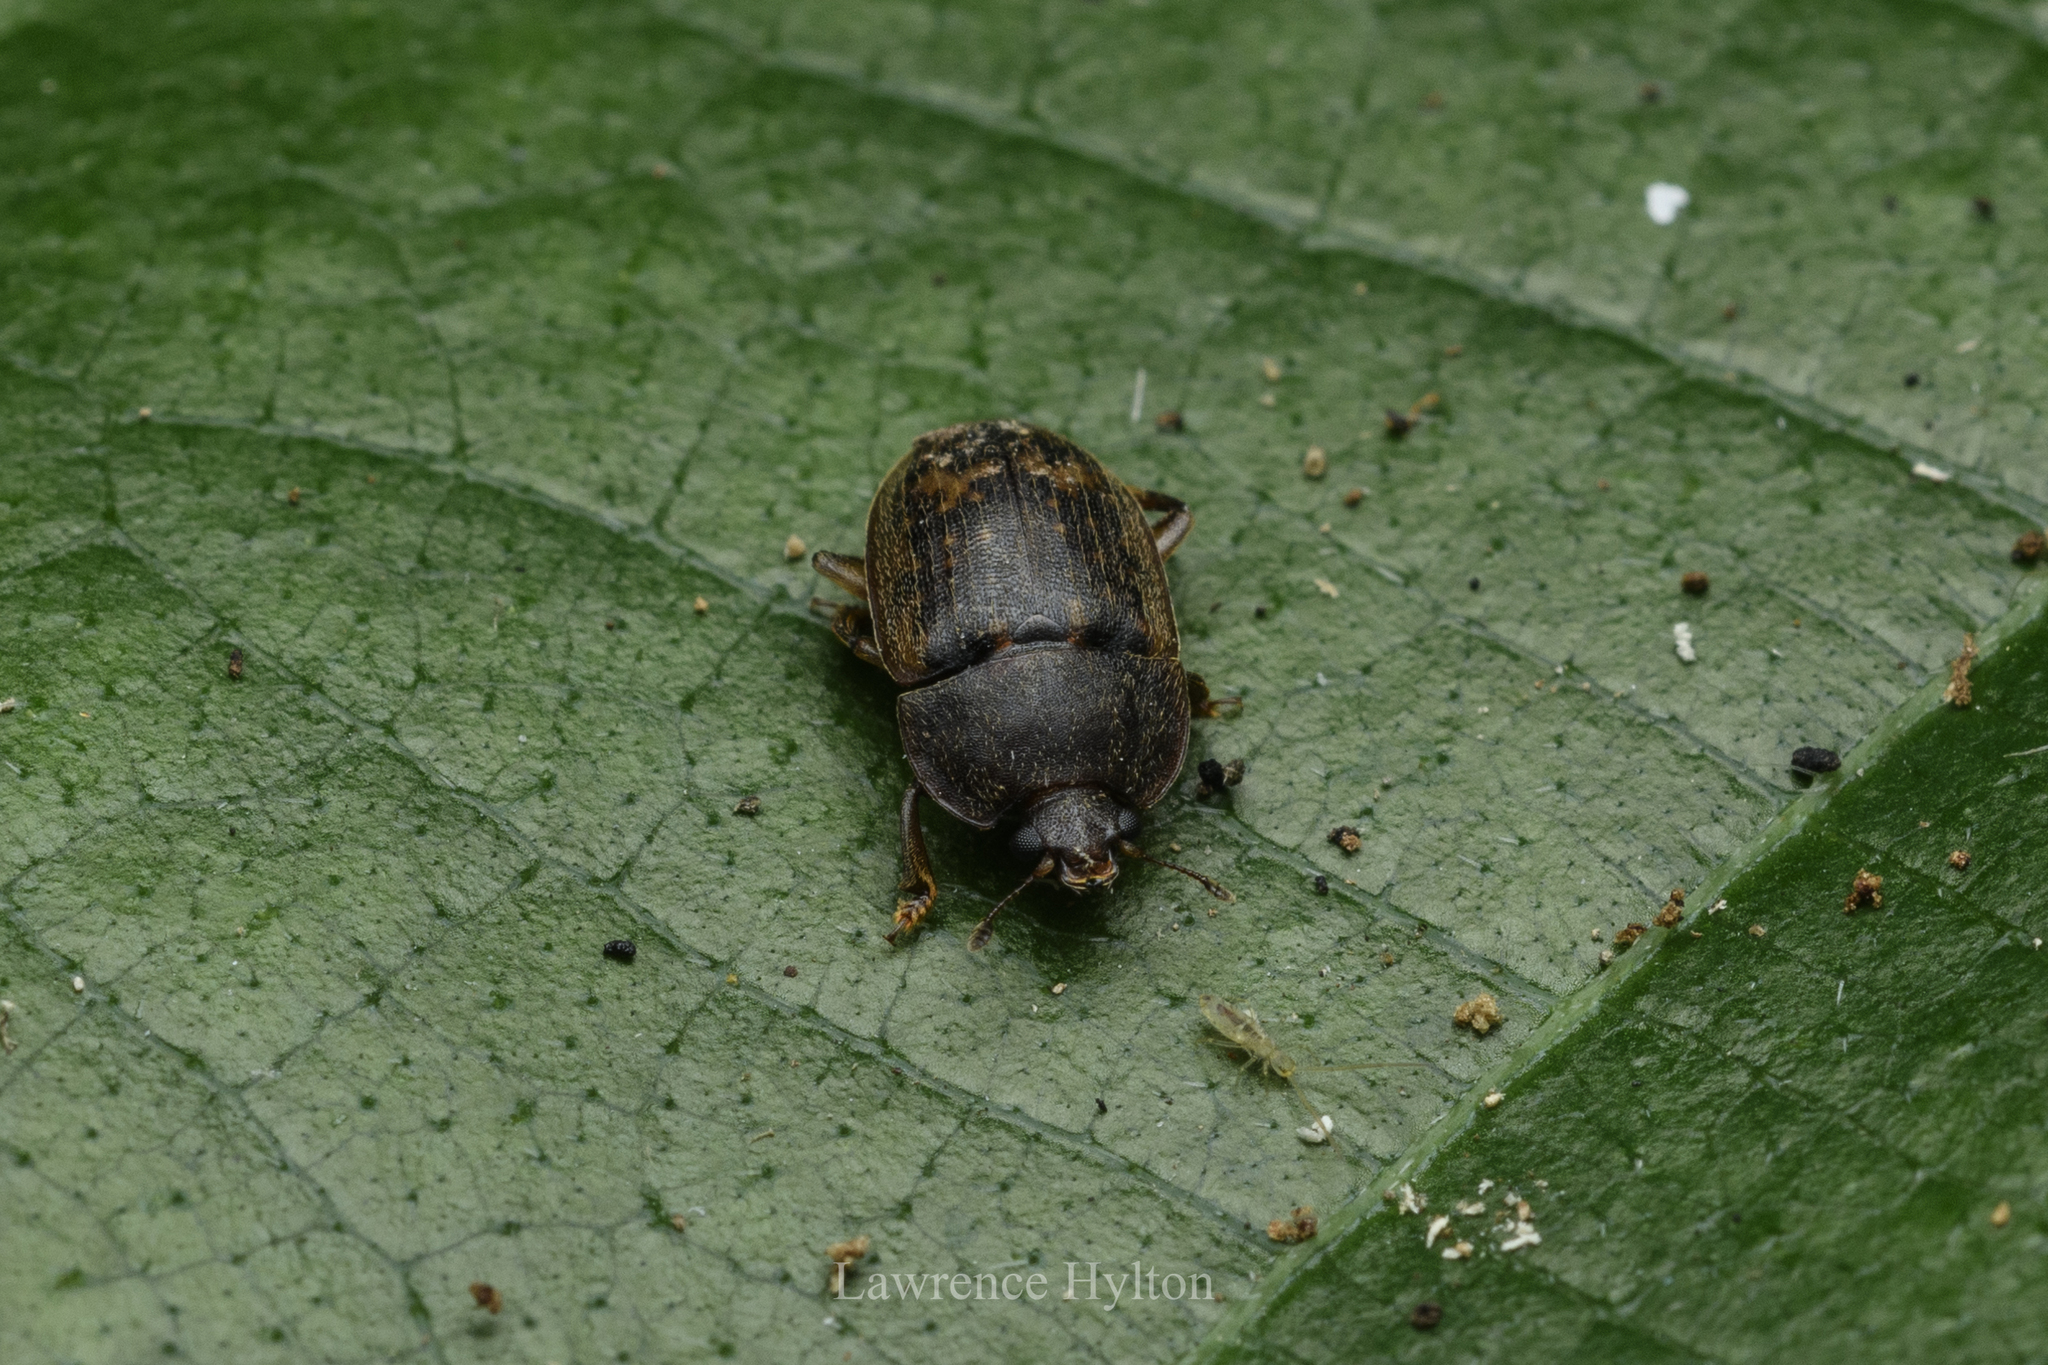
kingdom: Animalia
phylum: Arthropoda
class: Insecta
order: Coleoptera
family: Nitidulidae
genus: Phenolia
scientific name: Phenolia picta
